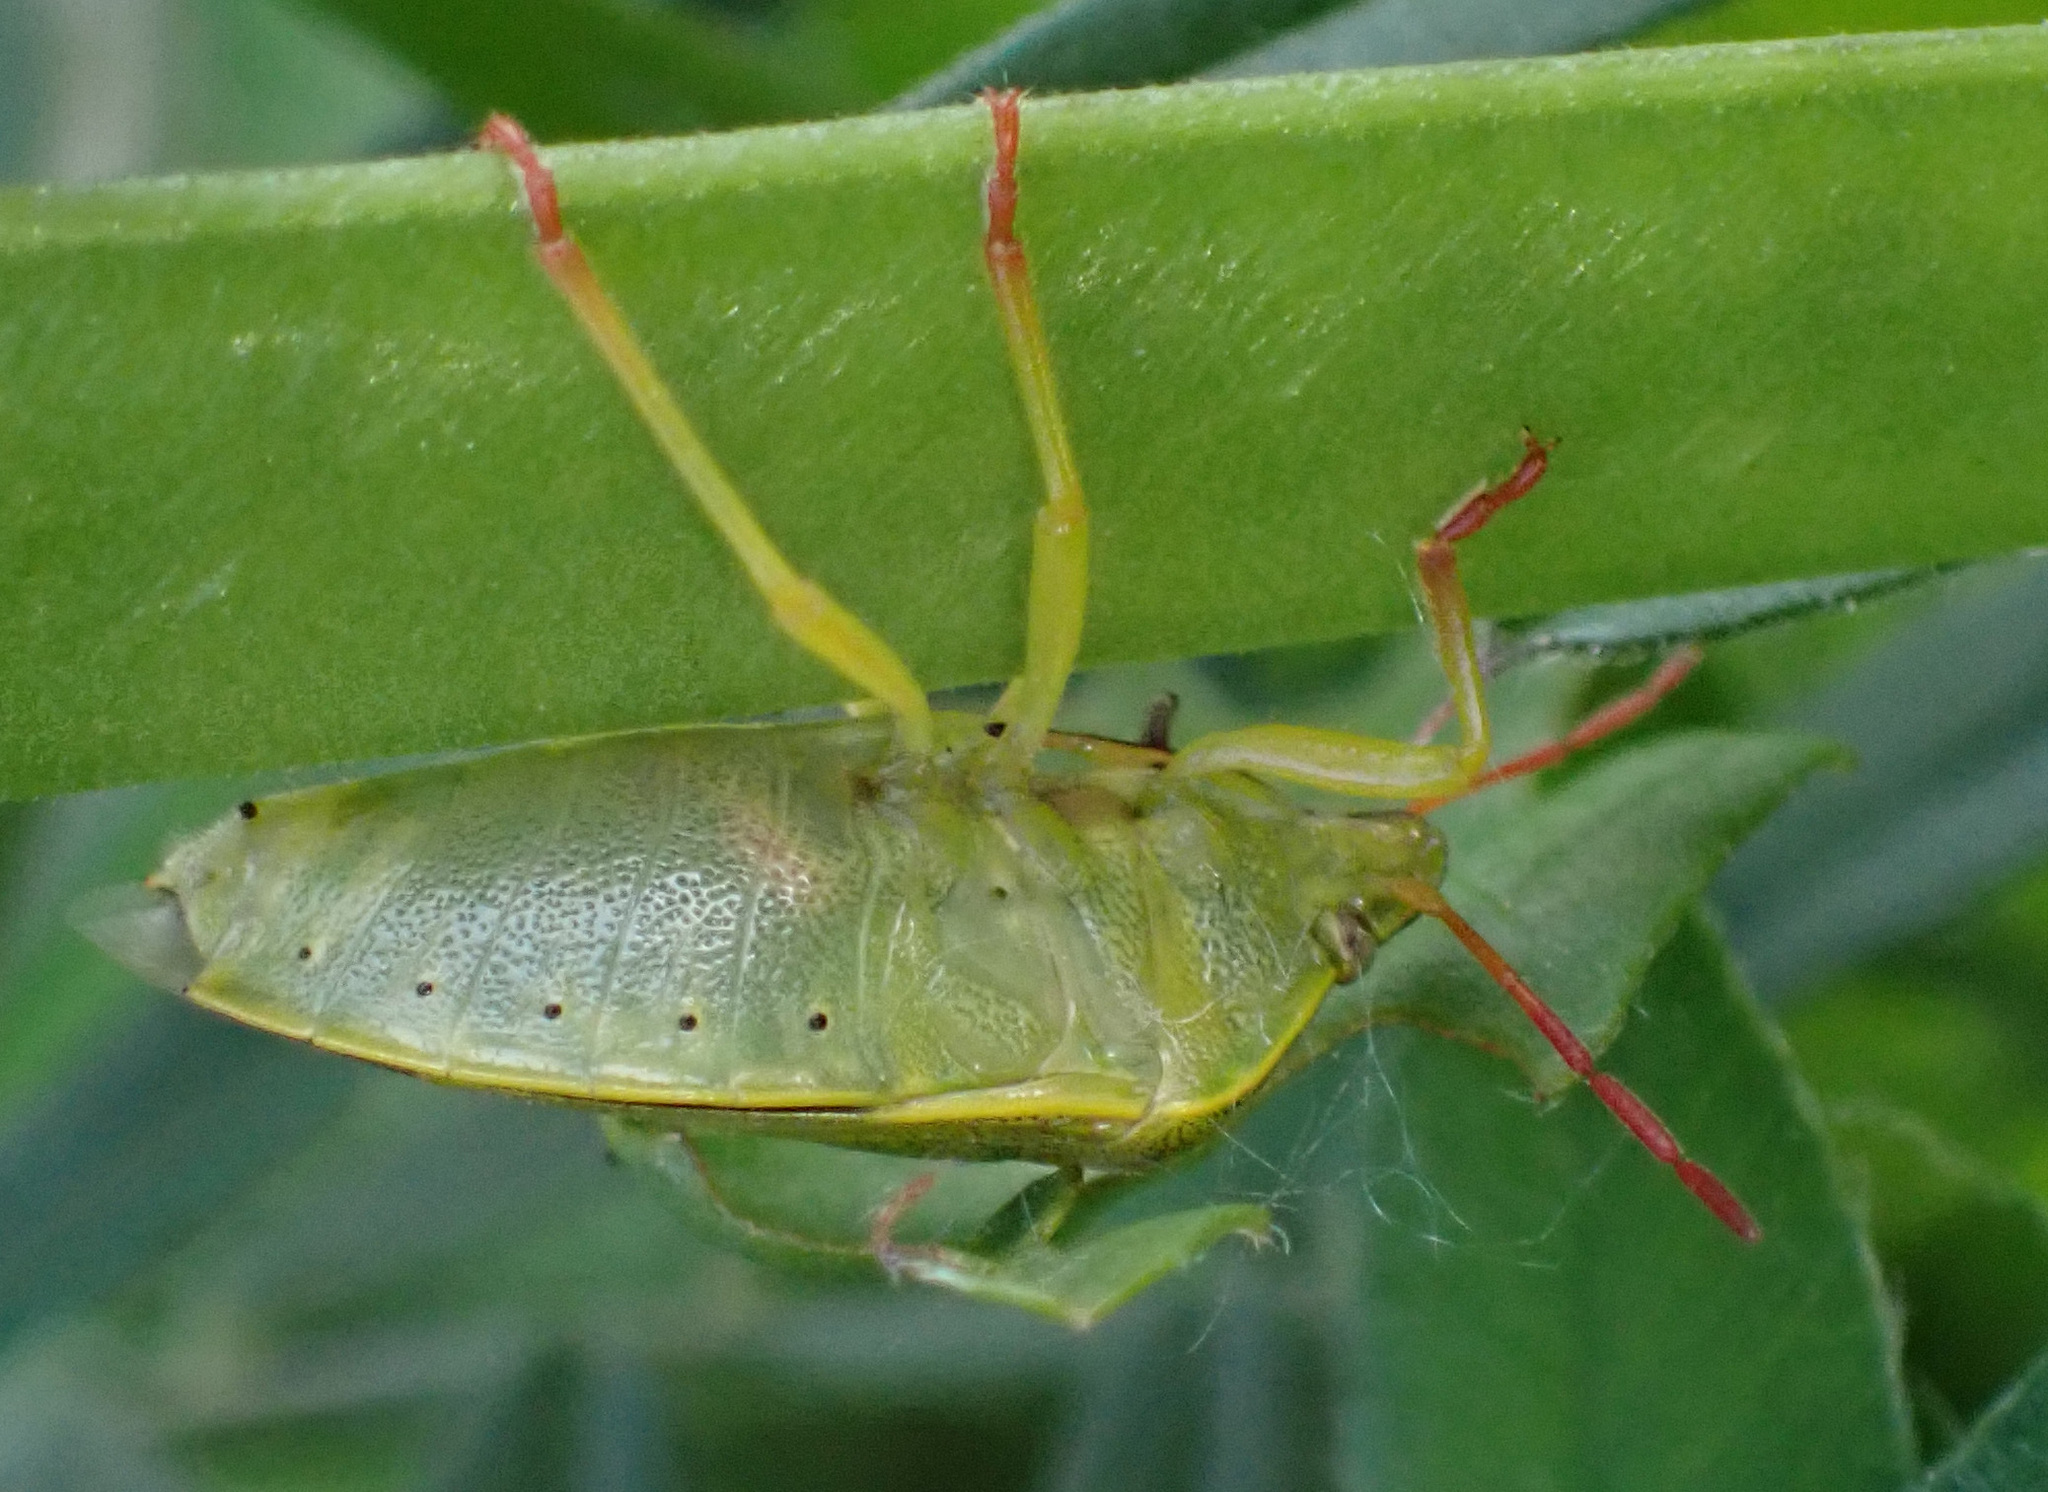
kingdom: Animalia
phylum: Arthropoda
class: Insecta
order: Hemiptera
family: Pentatomidae
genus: Piezodorus
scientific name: Piezodorus lituratus
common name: Stink bug
